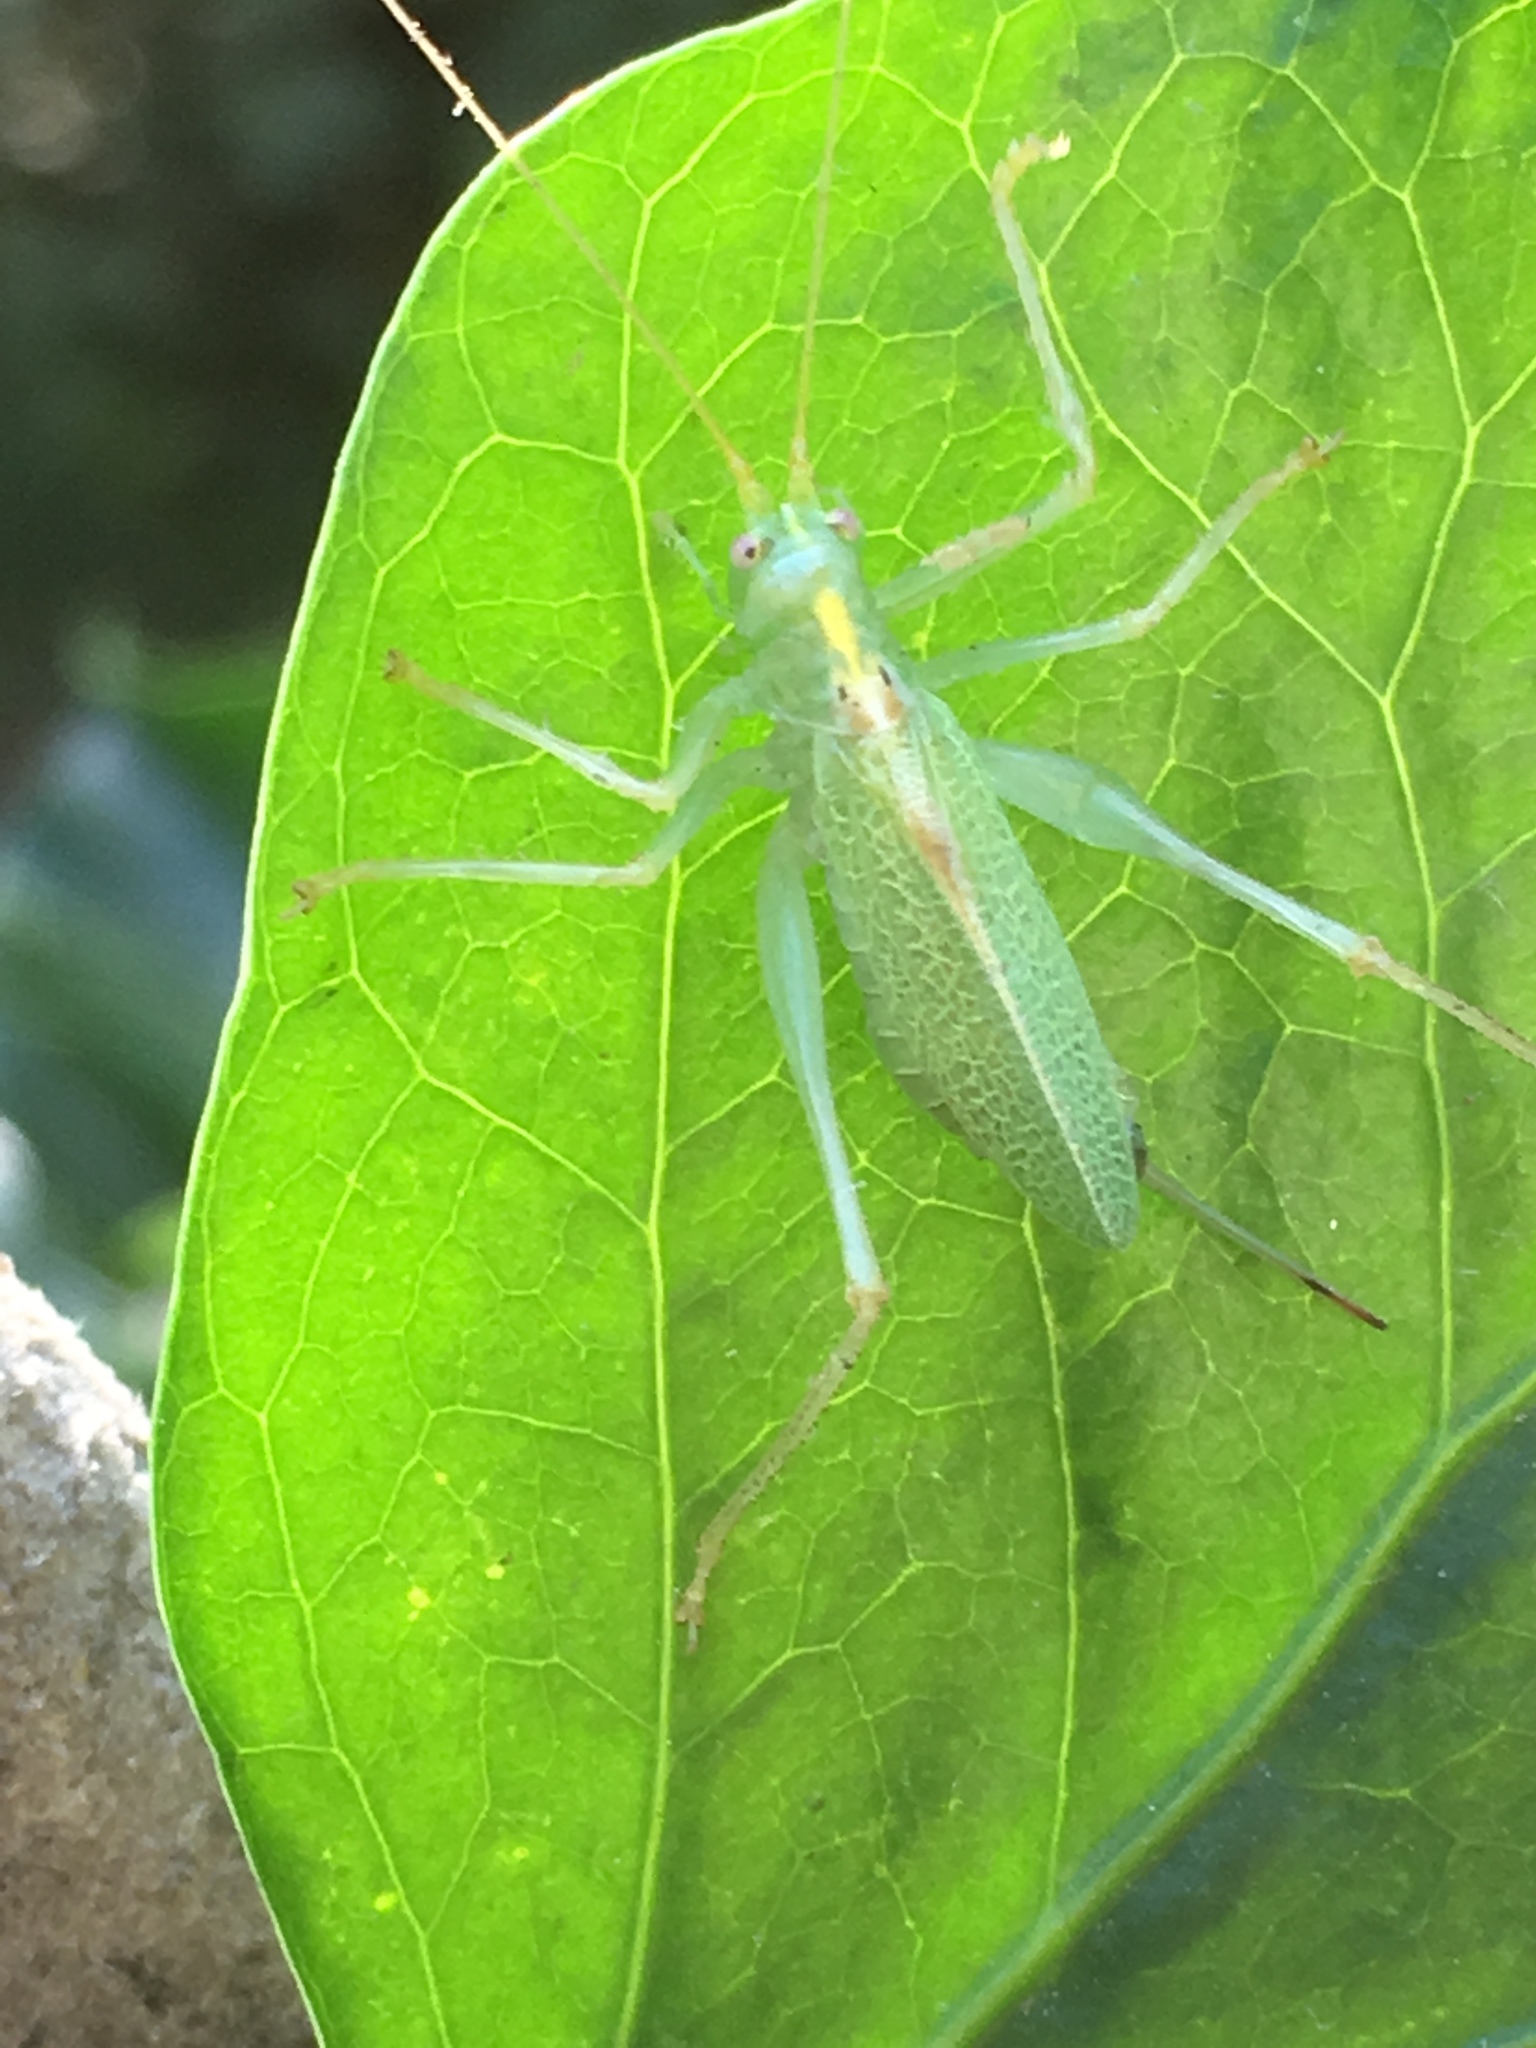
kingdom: Animalia
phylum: Arthropoda
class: Insecta
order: Orthoptera
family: Tettigoniidae
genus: Meconema
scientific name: Meconema thalassinum
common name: Oak bush-cricket
